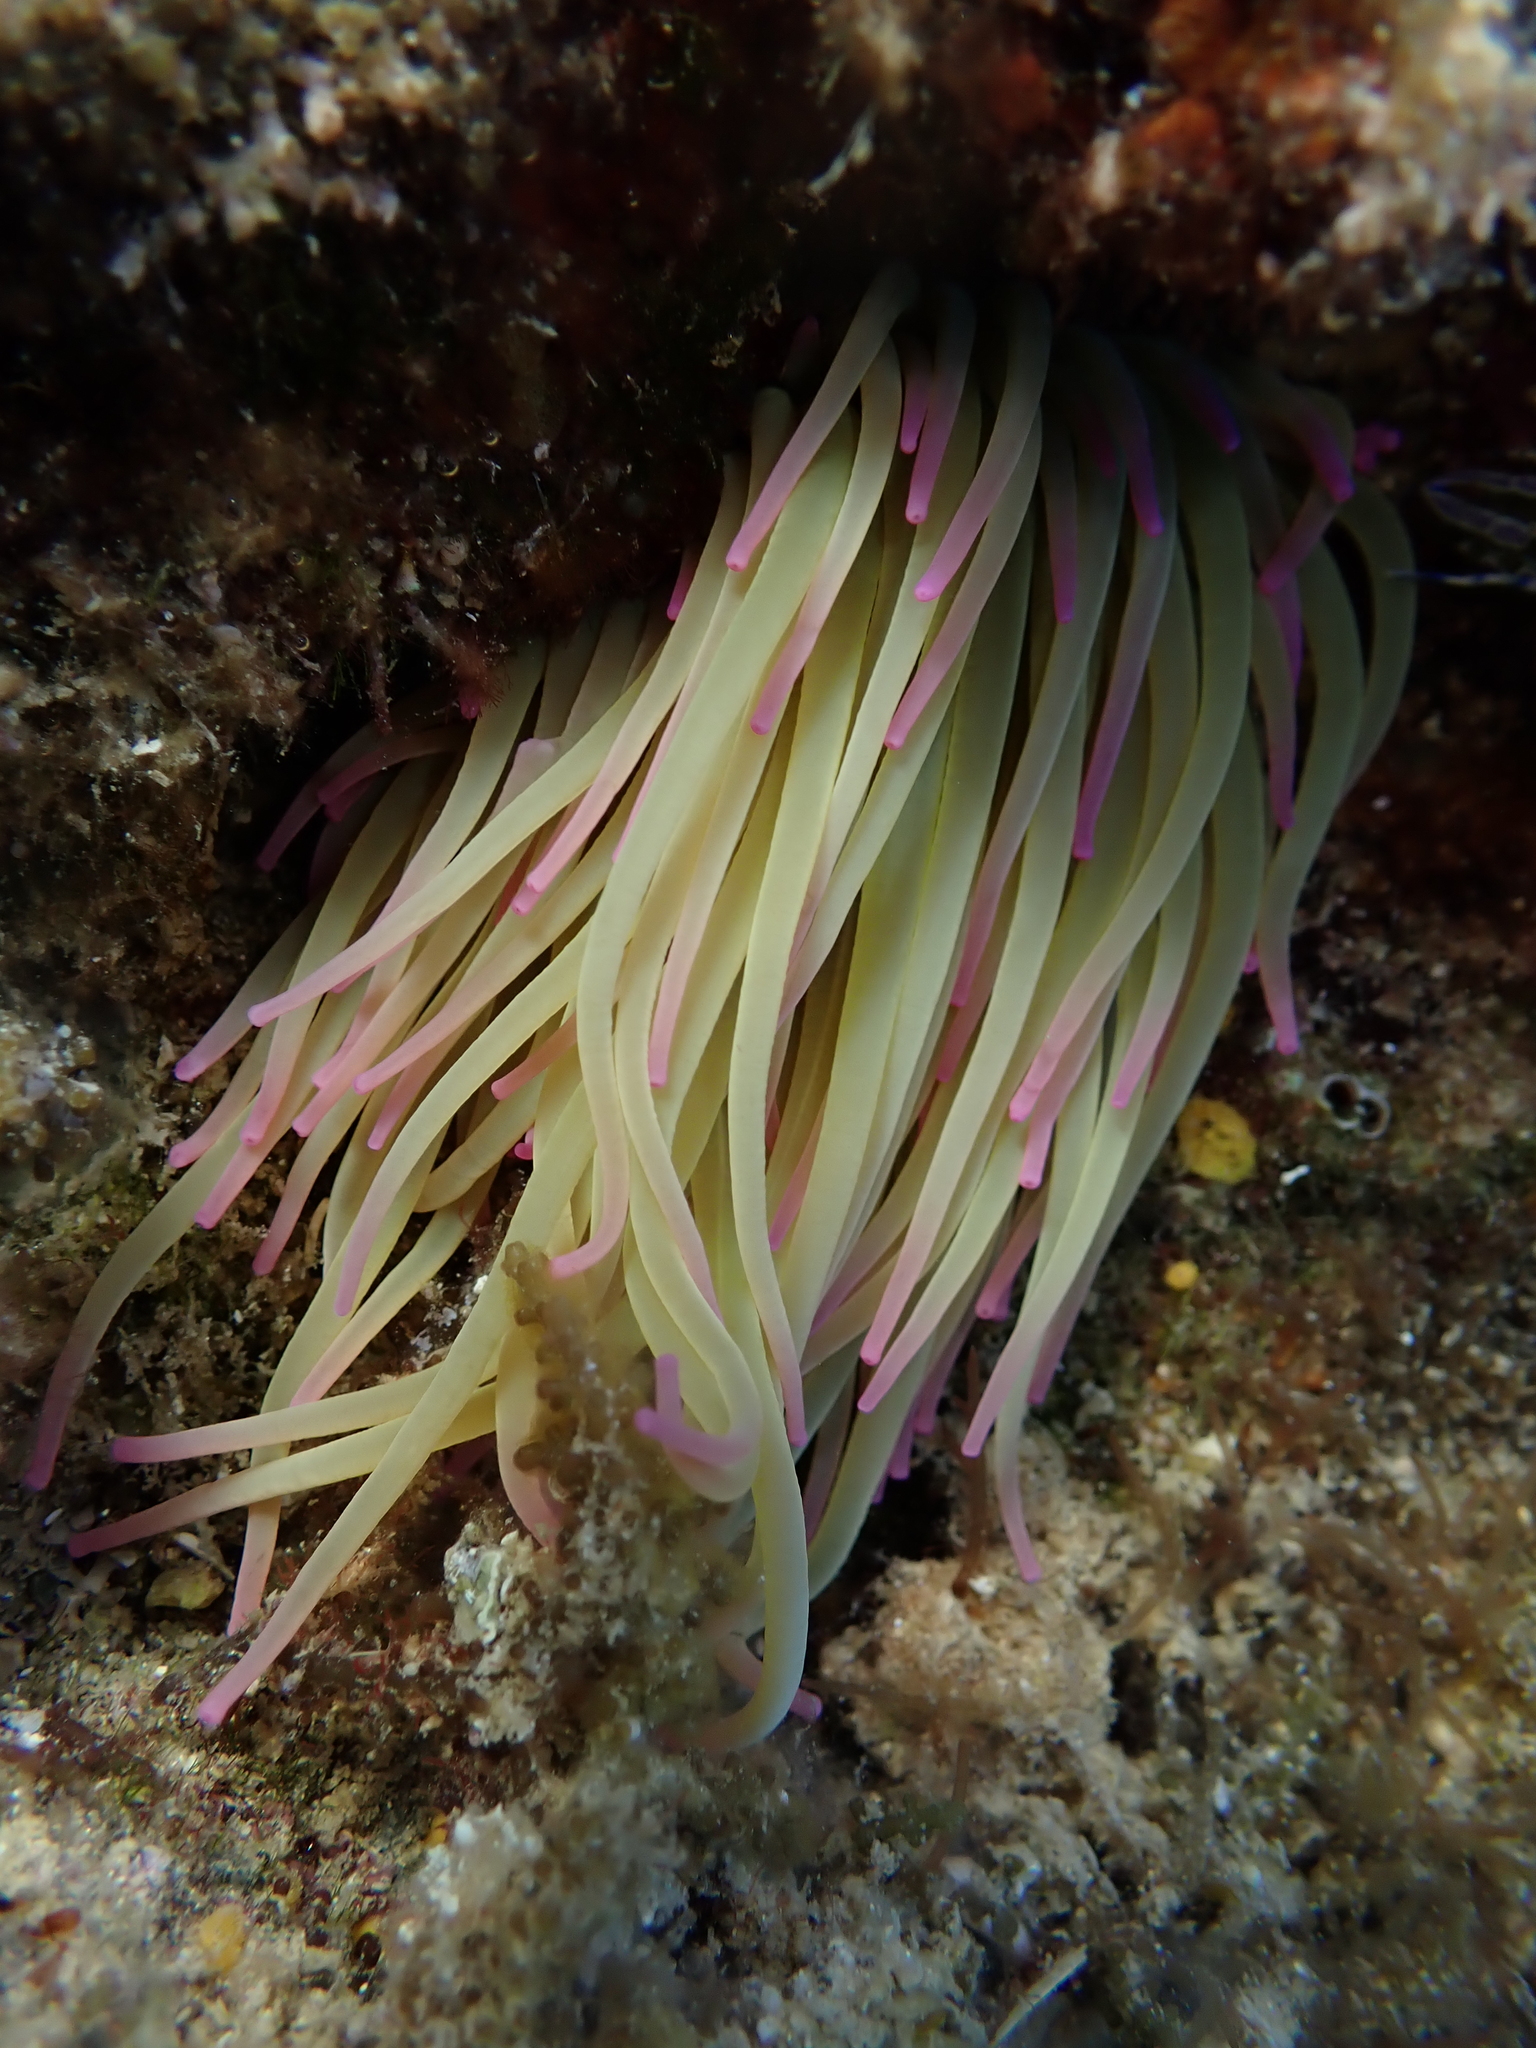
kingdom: Animalia
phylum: Cnidaria
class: Anthozoa
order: Actiniaria
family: Actiniidae
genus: Anemonia
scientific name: Anemonia viridis
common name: Snakelocks anemone
